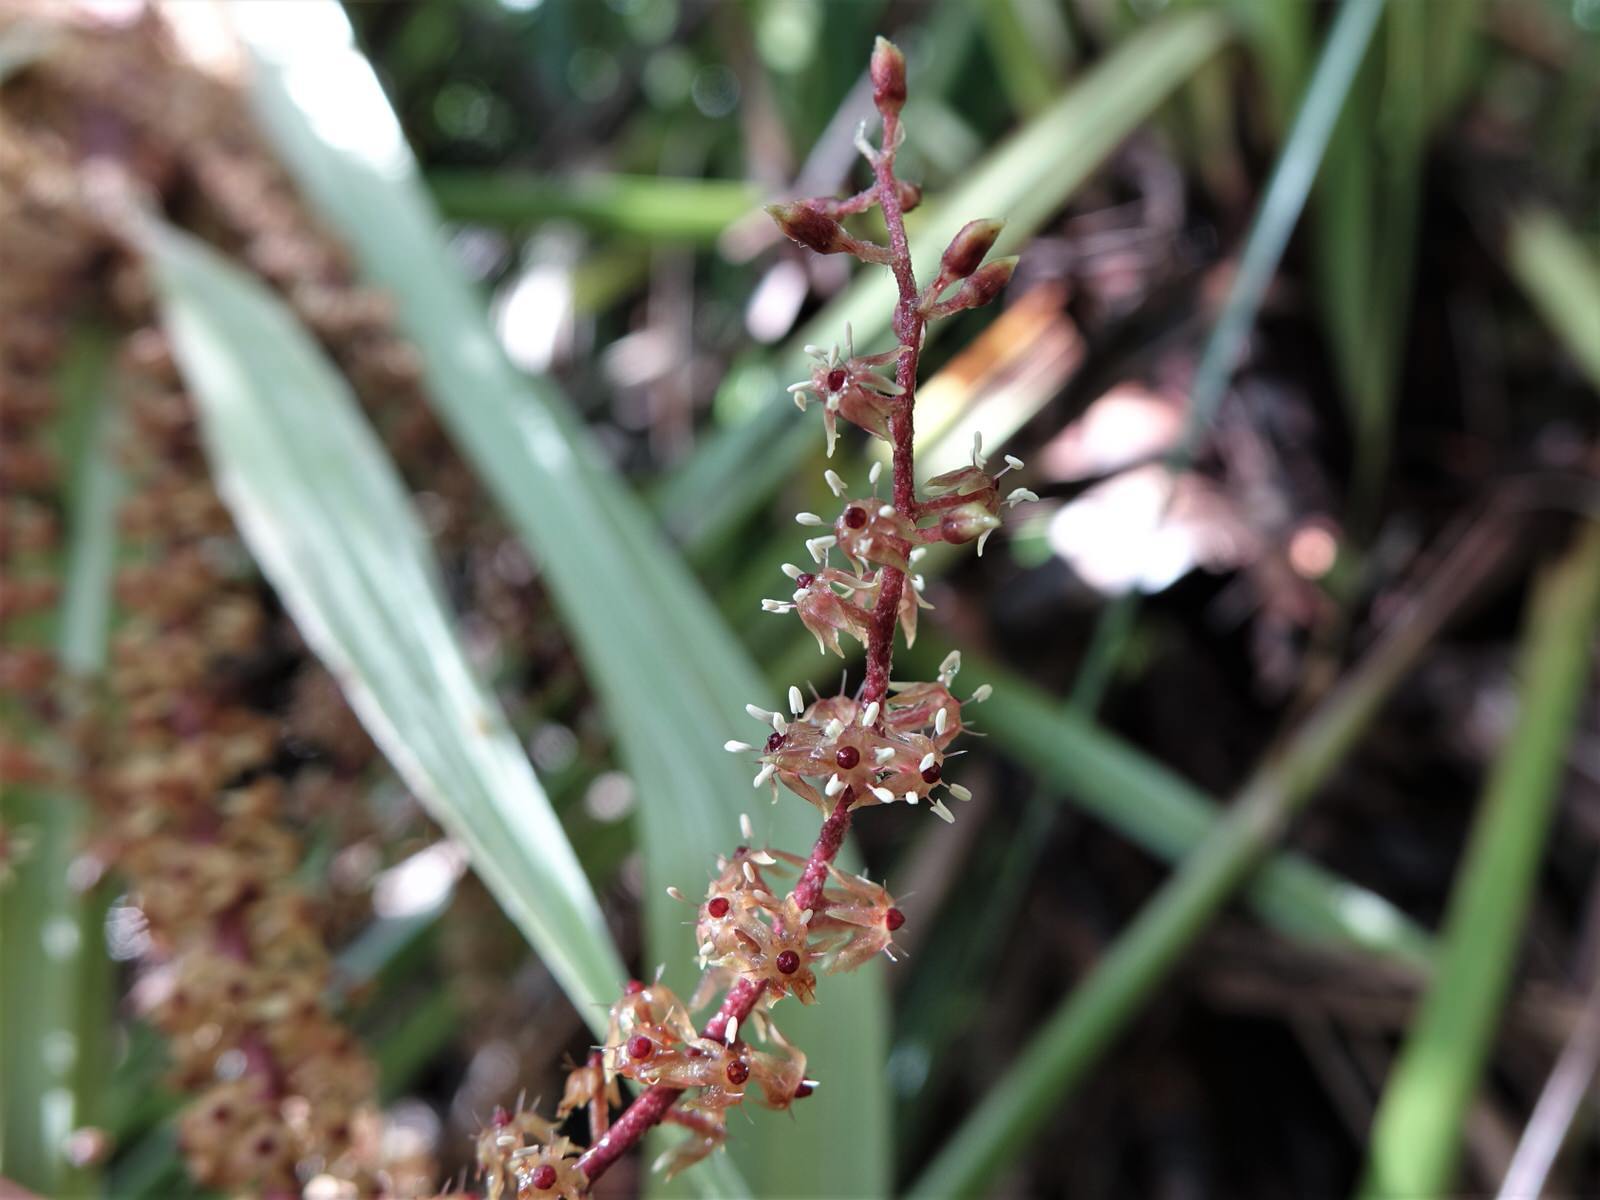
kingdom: Plantae
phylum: Tracheophyta
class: Liliopsida
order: Asparagales
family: Asteliaceae
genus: Astelia
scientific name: Astelia trinervia
